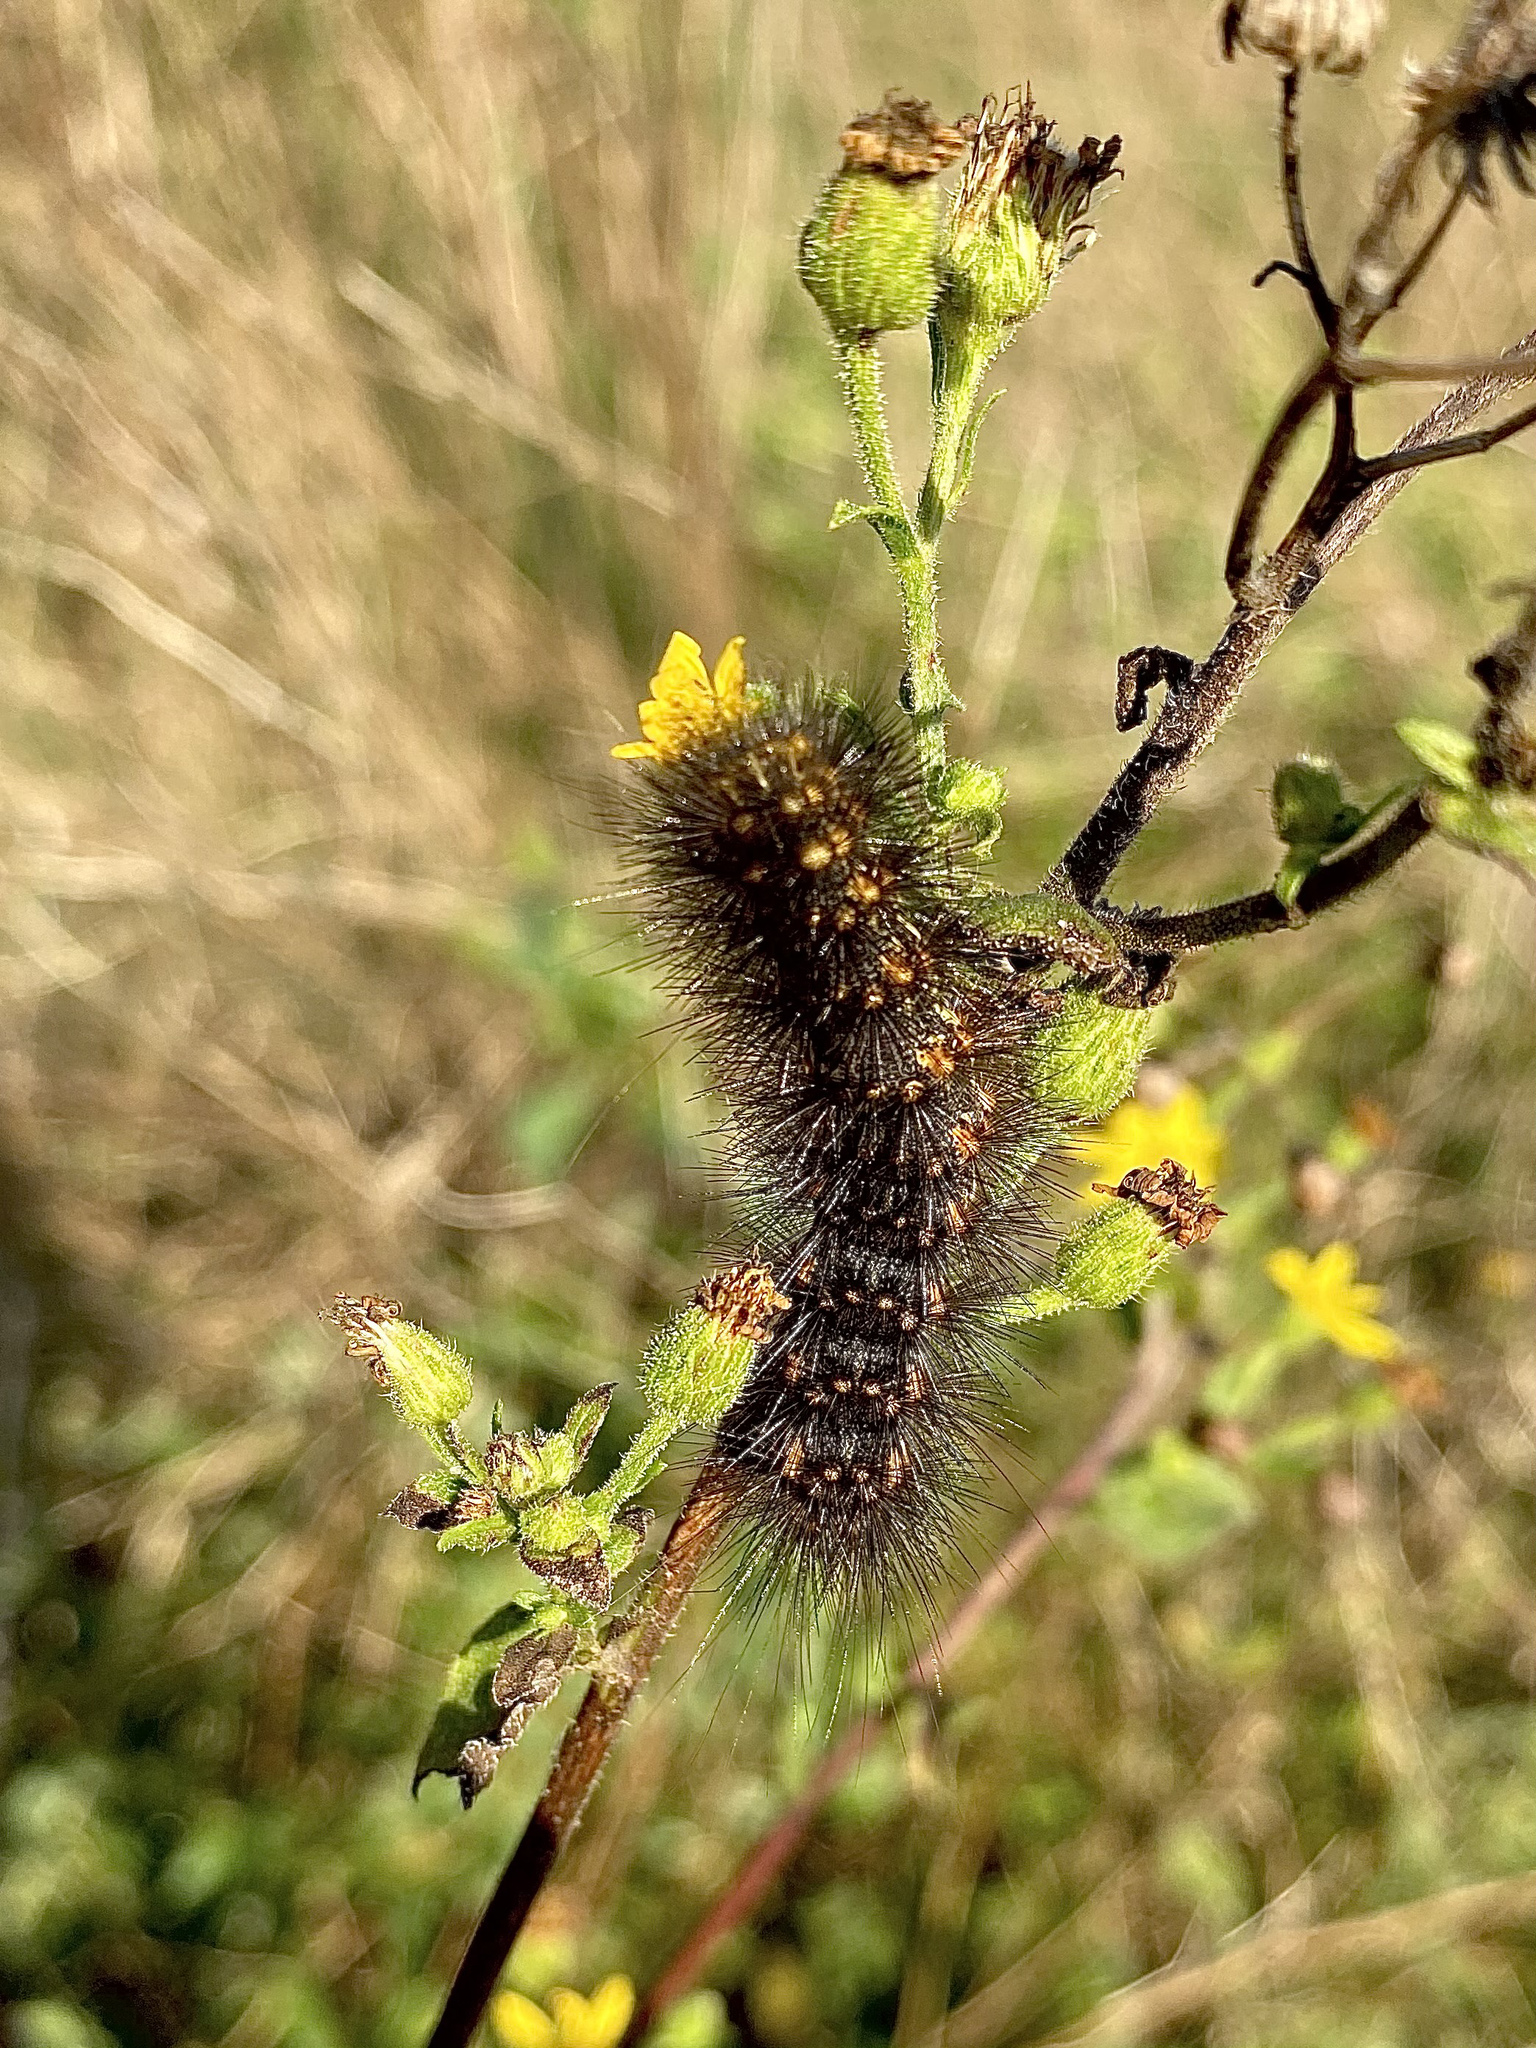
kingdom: Animalia
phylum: Arthropoda
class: Insecta
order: Lepidoptera
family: Erebidae
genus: Estigmene
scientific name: Estigmene acrea
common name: Salt marsh moth
